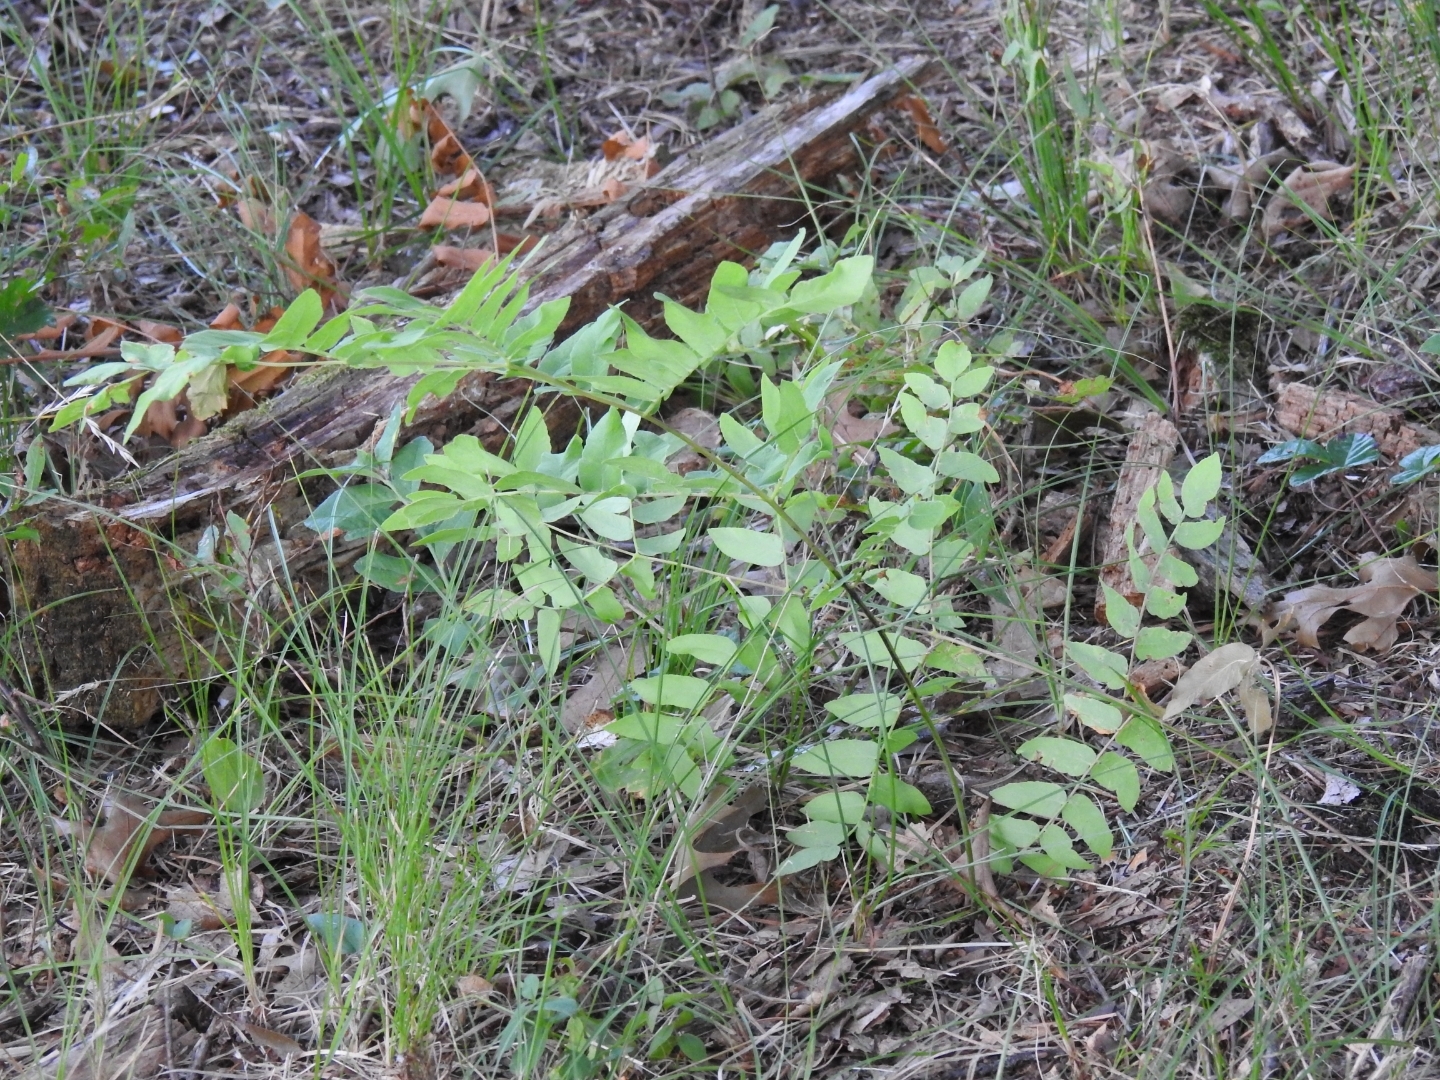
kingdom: Plantae
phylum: Tracheophyta
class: Polypodiopsida
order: Osmundales
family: Osmundaceae
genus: Osmunda
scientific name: Osmunda spectabilis
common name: American royal fern
